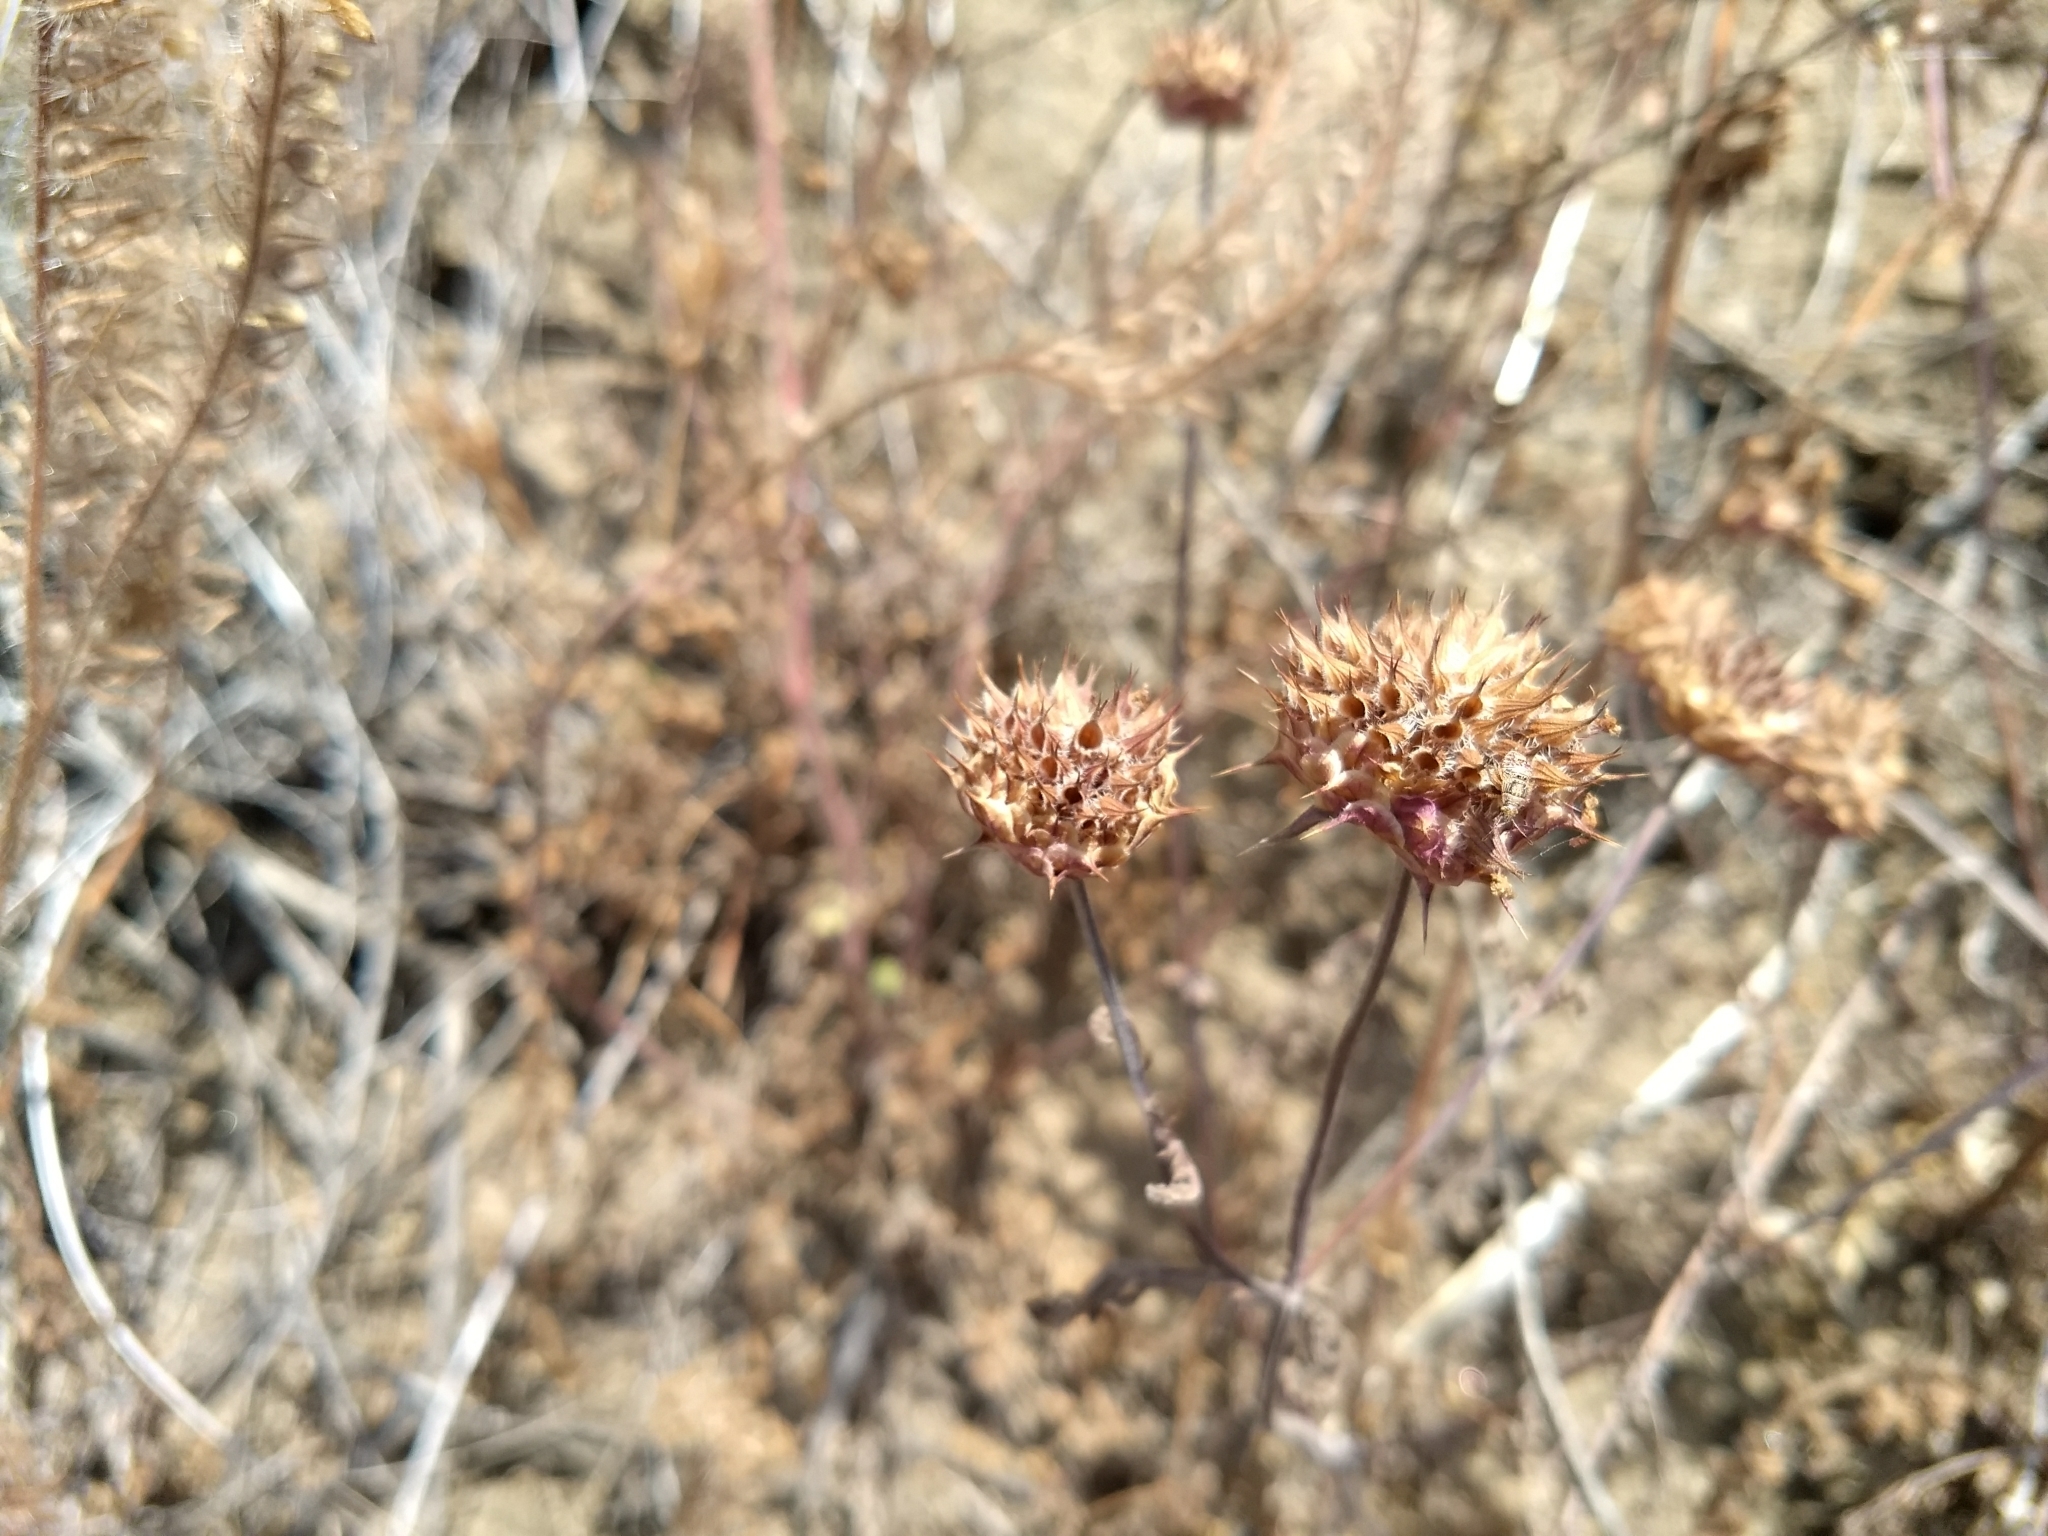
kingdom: Plantae
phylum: Tracheophyta
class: Magnoliopsida
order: Lamiales
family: Lamiaceae
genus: Salvia
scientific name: Salvia columbariae
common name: Chia
